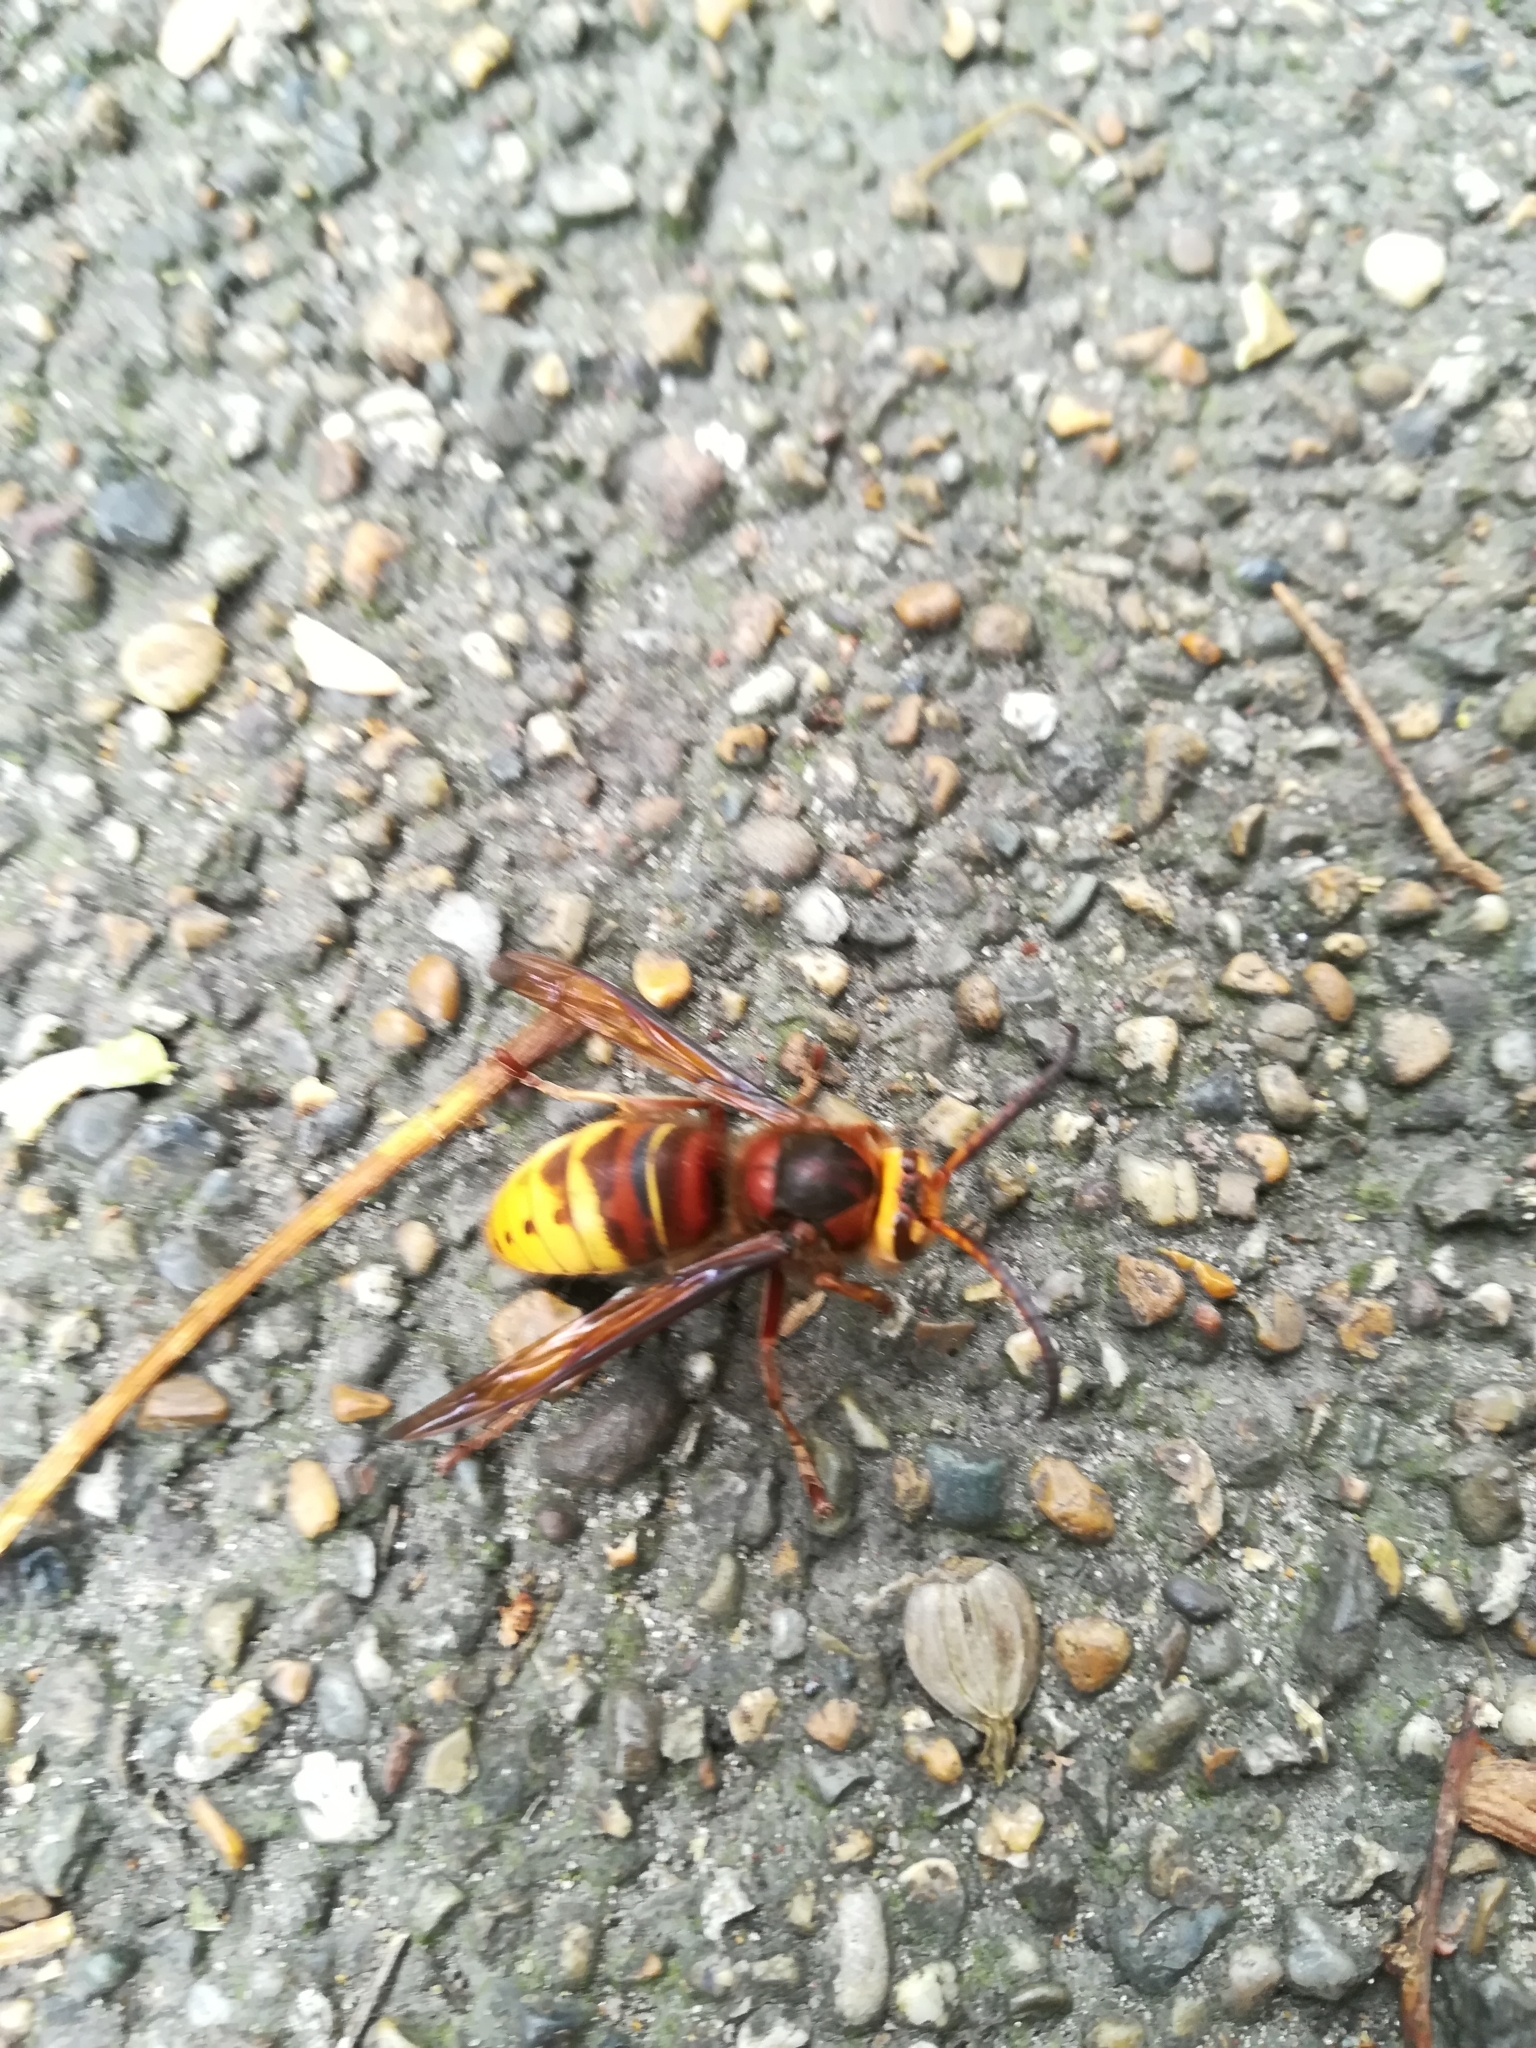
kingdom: Animalia
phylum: Arthropoda
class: Insecta
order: Hymenoptera
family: Vespidae
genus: Vespa
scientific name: Vespa crabro
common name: Hornet
